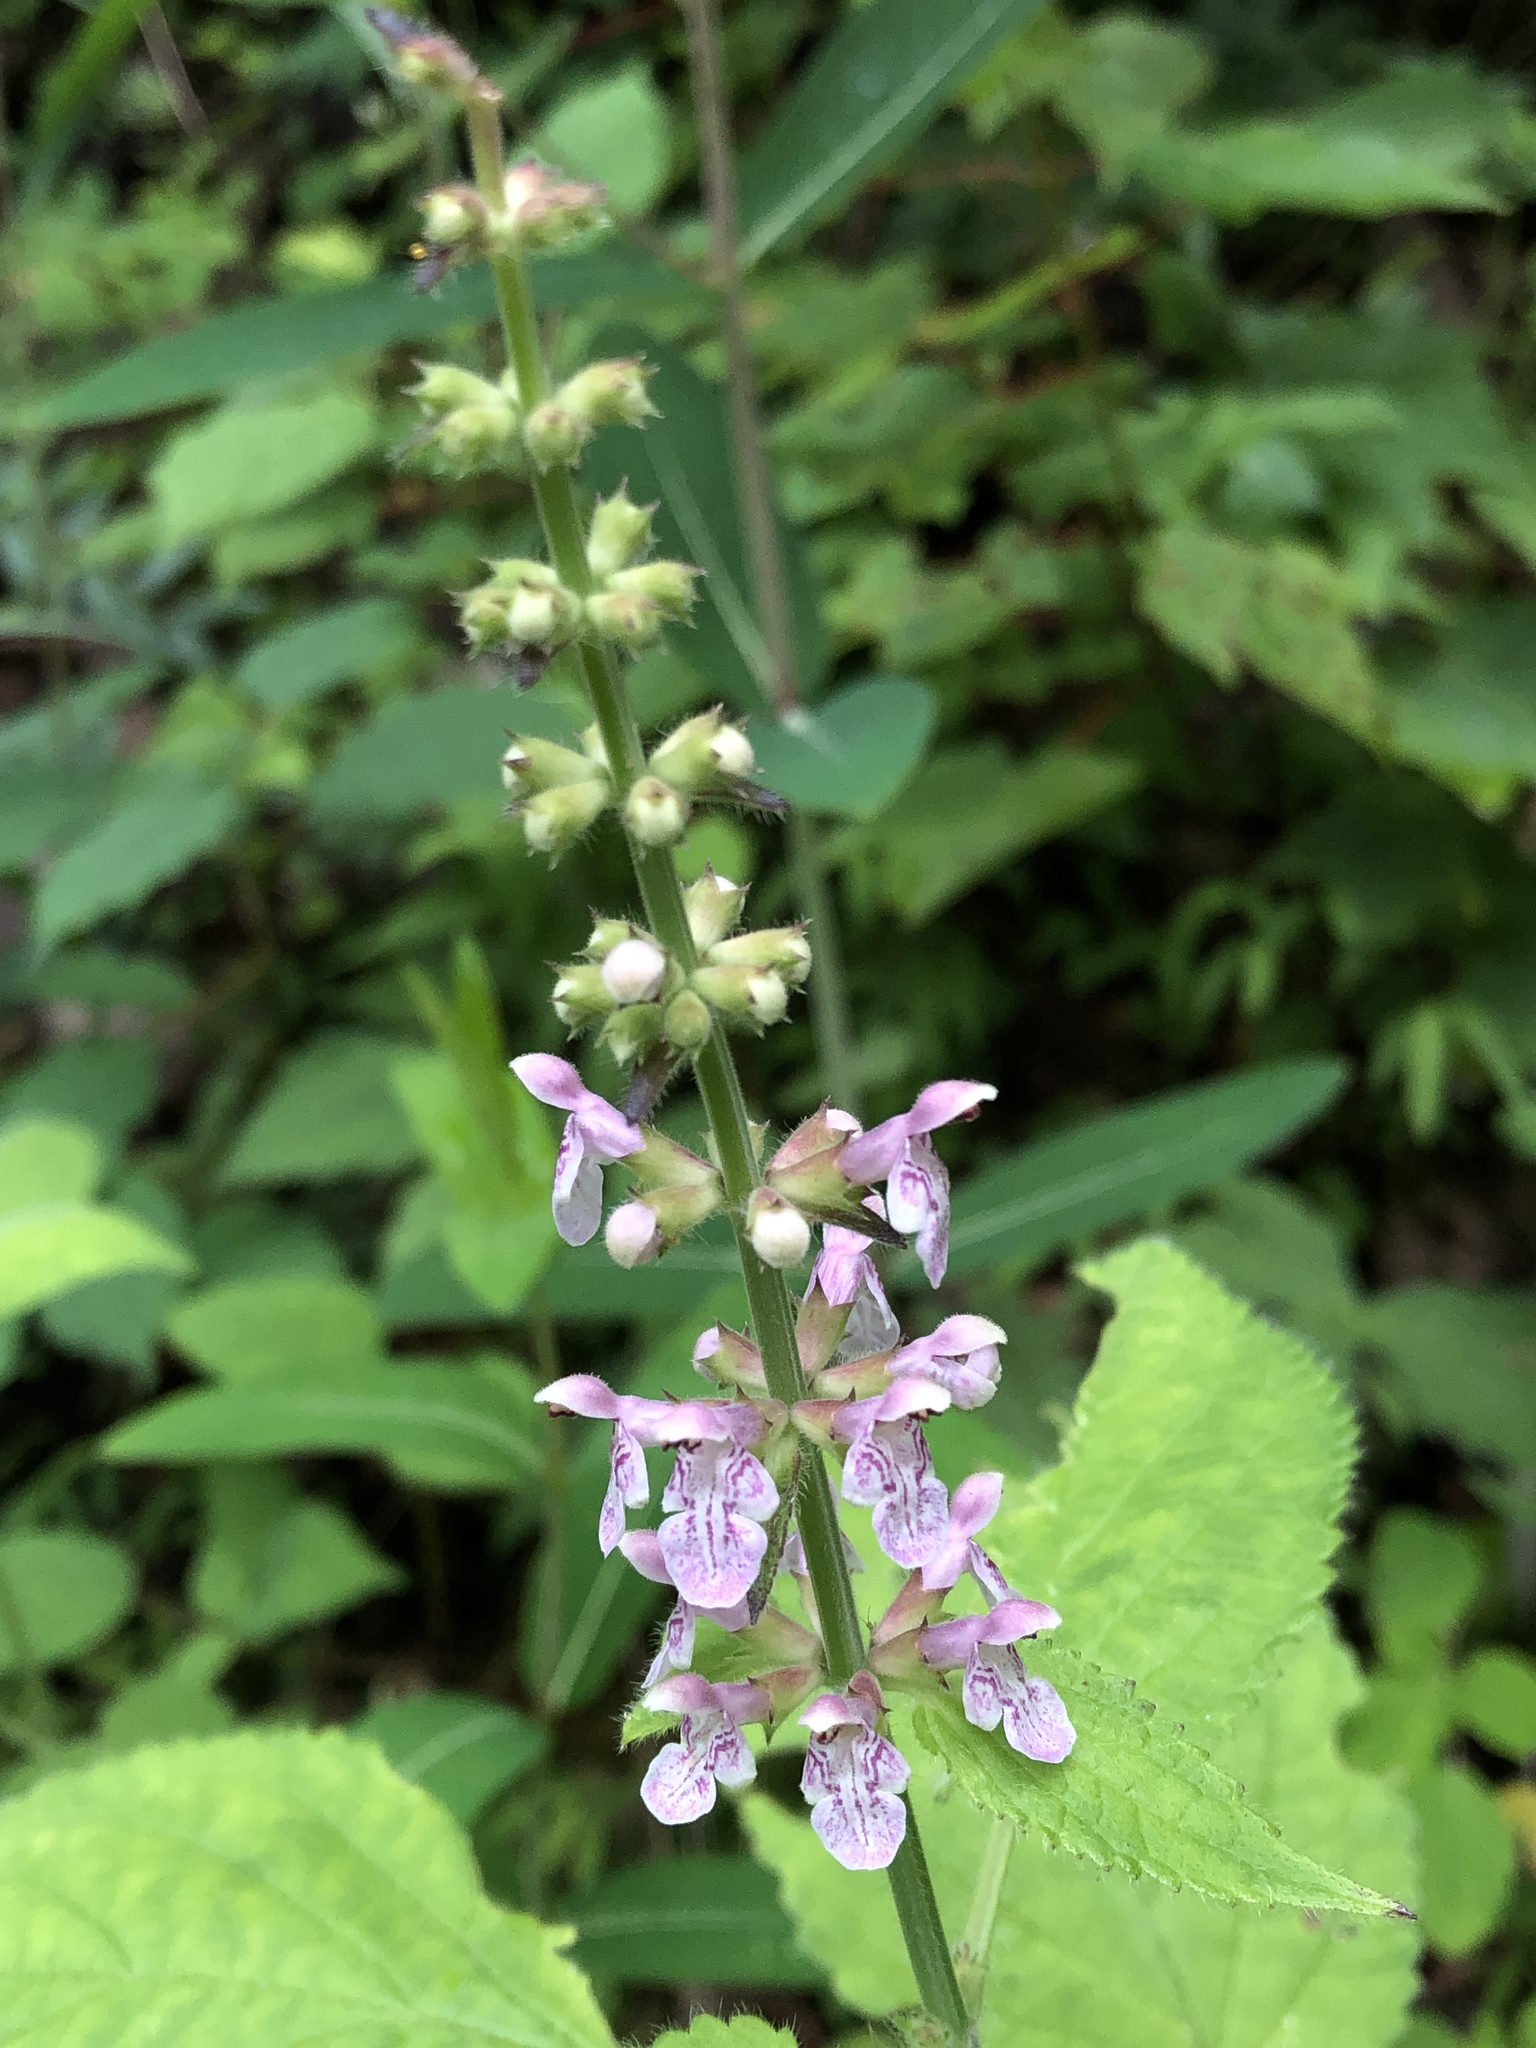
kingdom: Plantae
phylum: Tracheophyta
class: Magnoliopsida
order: Lamiales
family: Lamiaceae
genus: Stachys
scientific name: Stachys cordata
